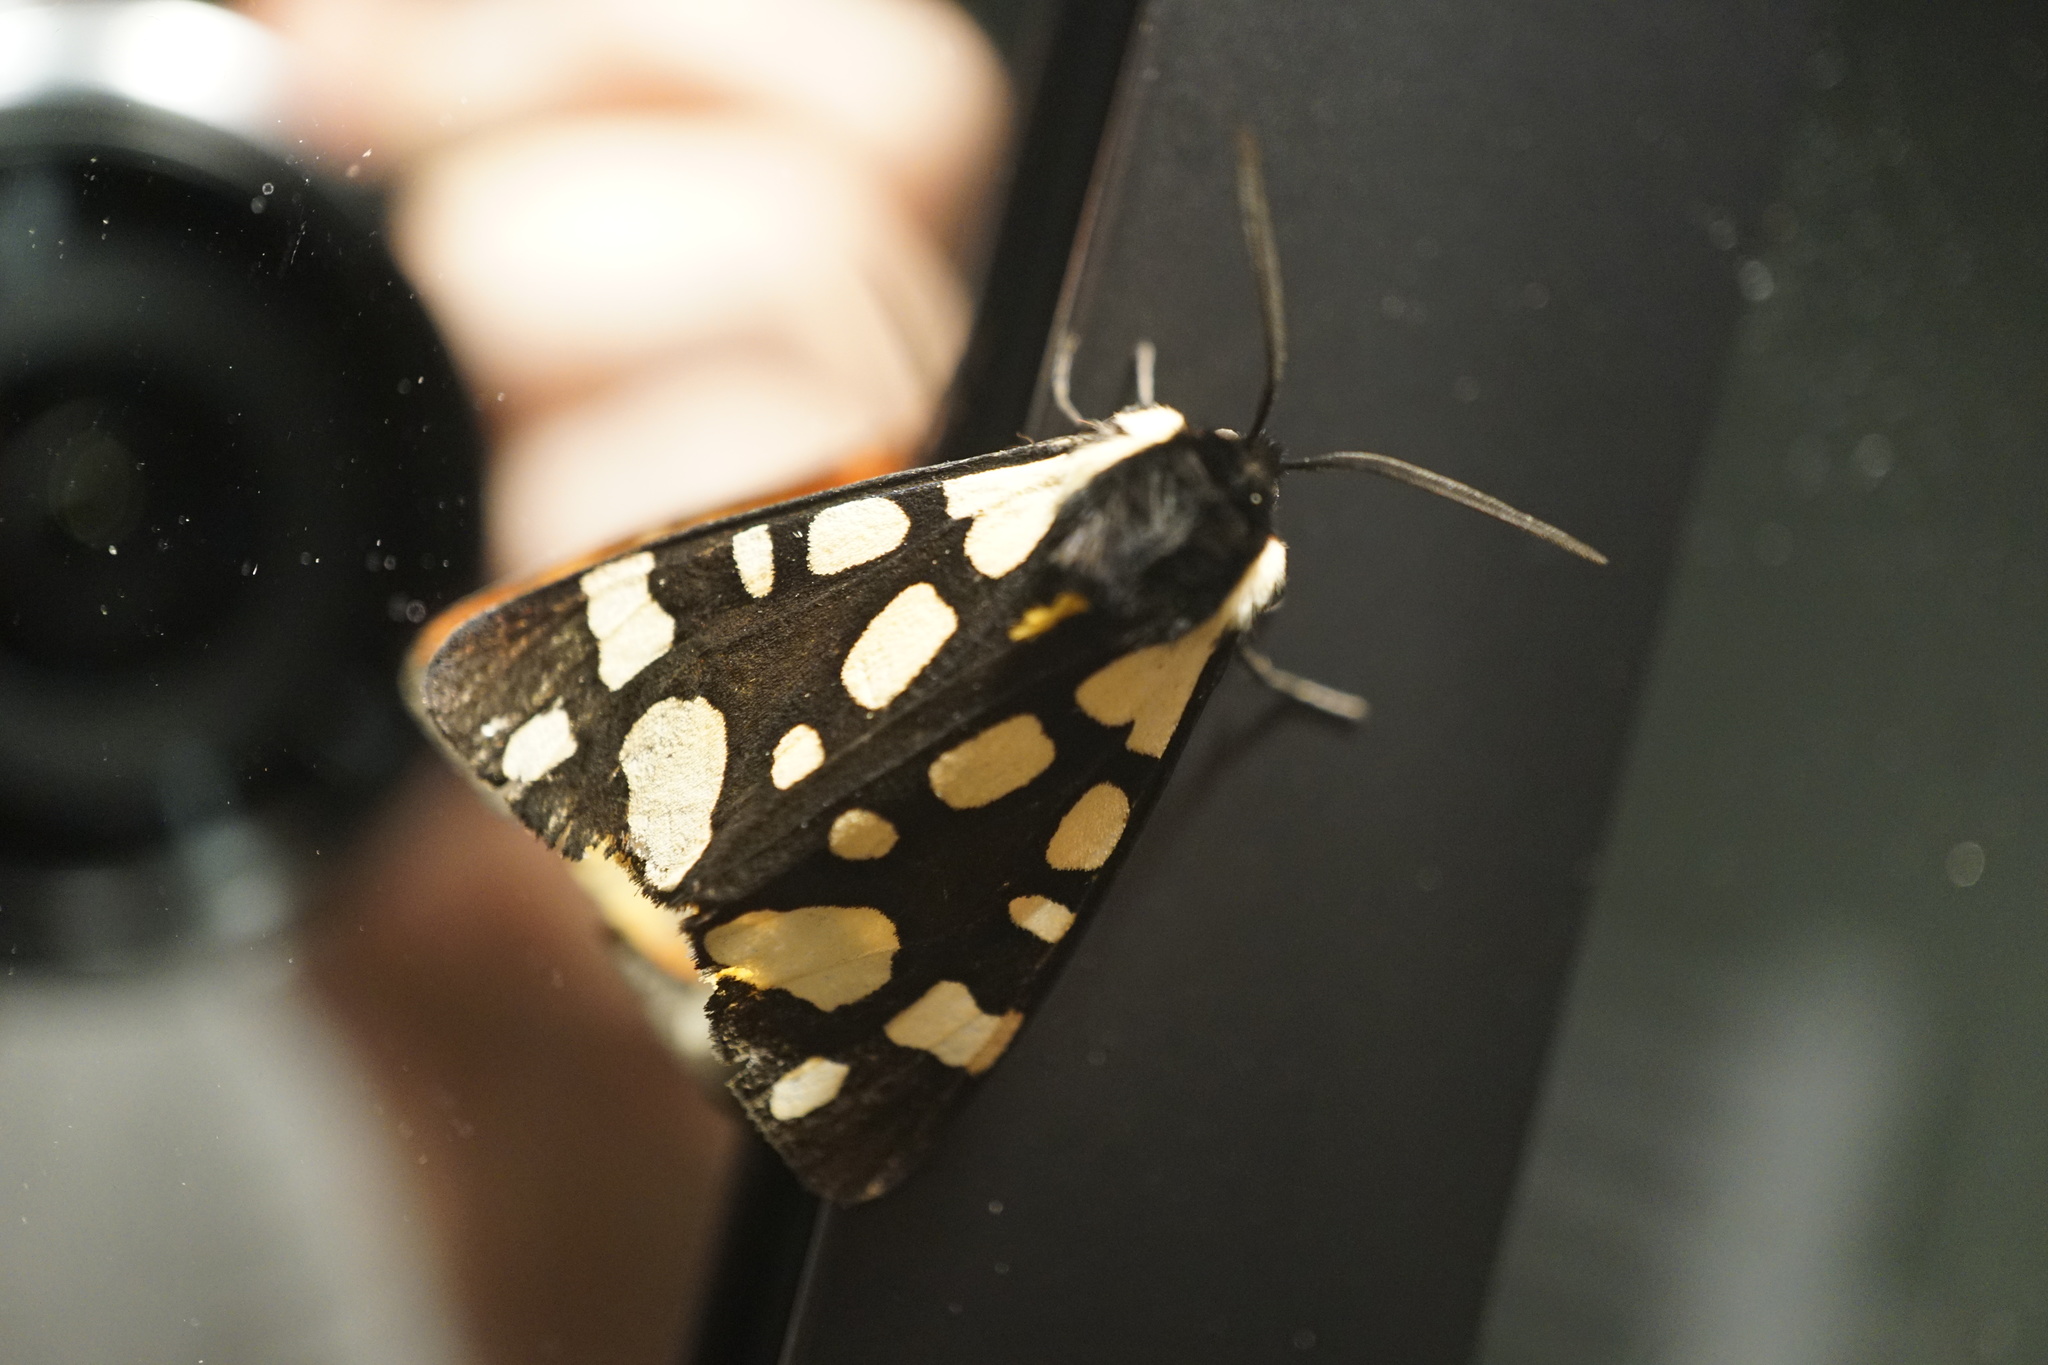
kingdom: Animalia
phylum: Arthropoda
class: Insecta
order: Lepidoptera
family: Erebidae
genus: Epicallia
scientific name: Epicallia villica
